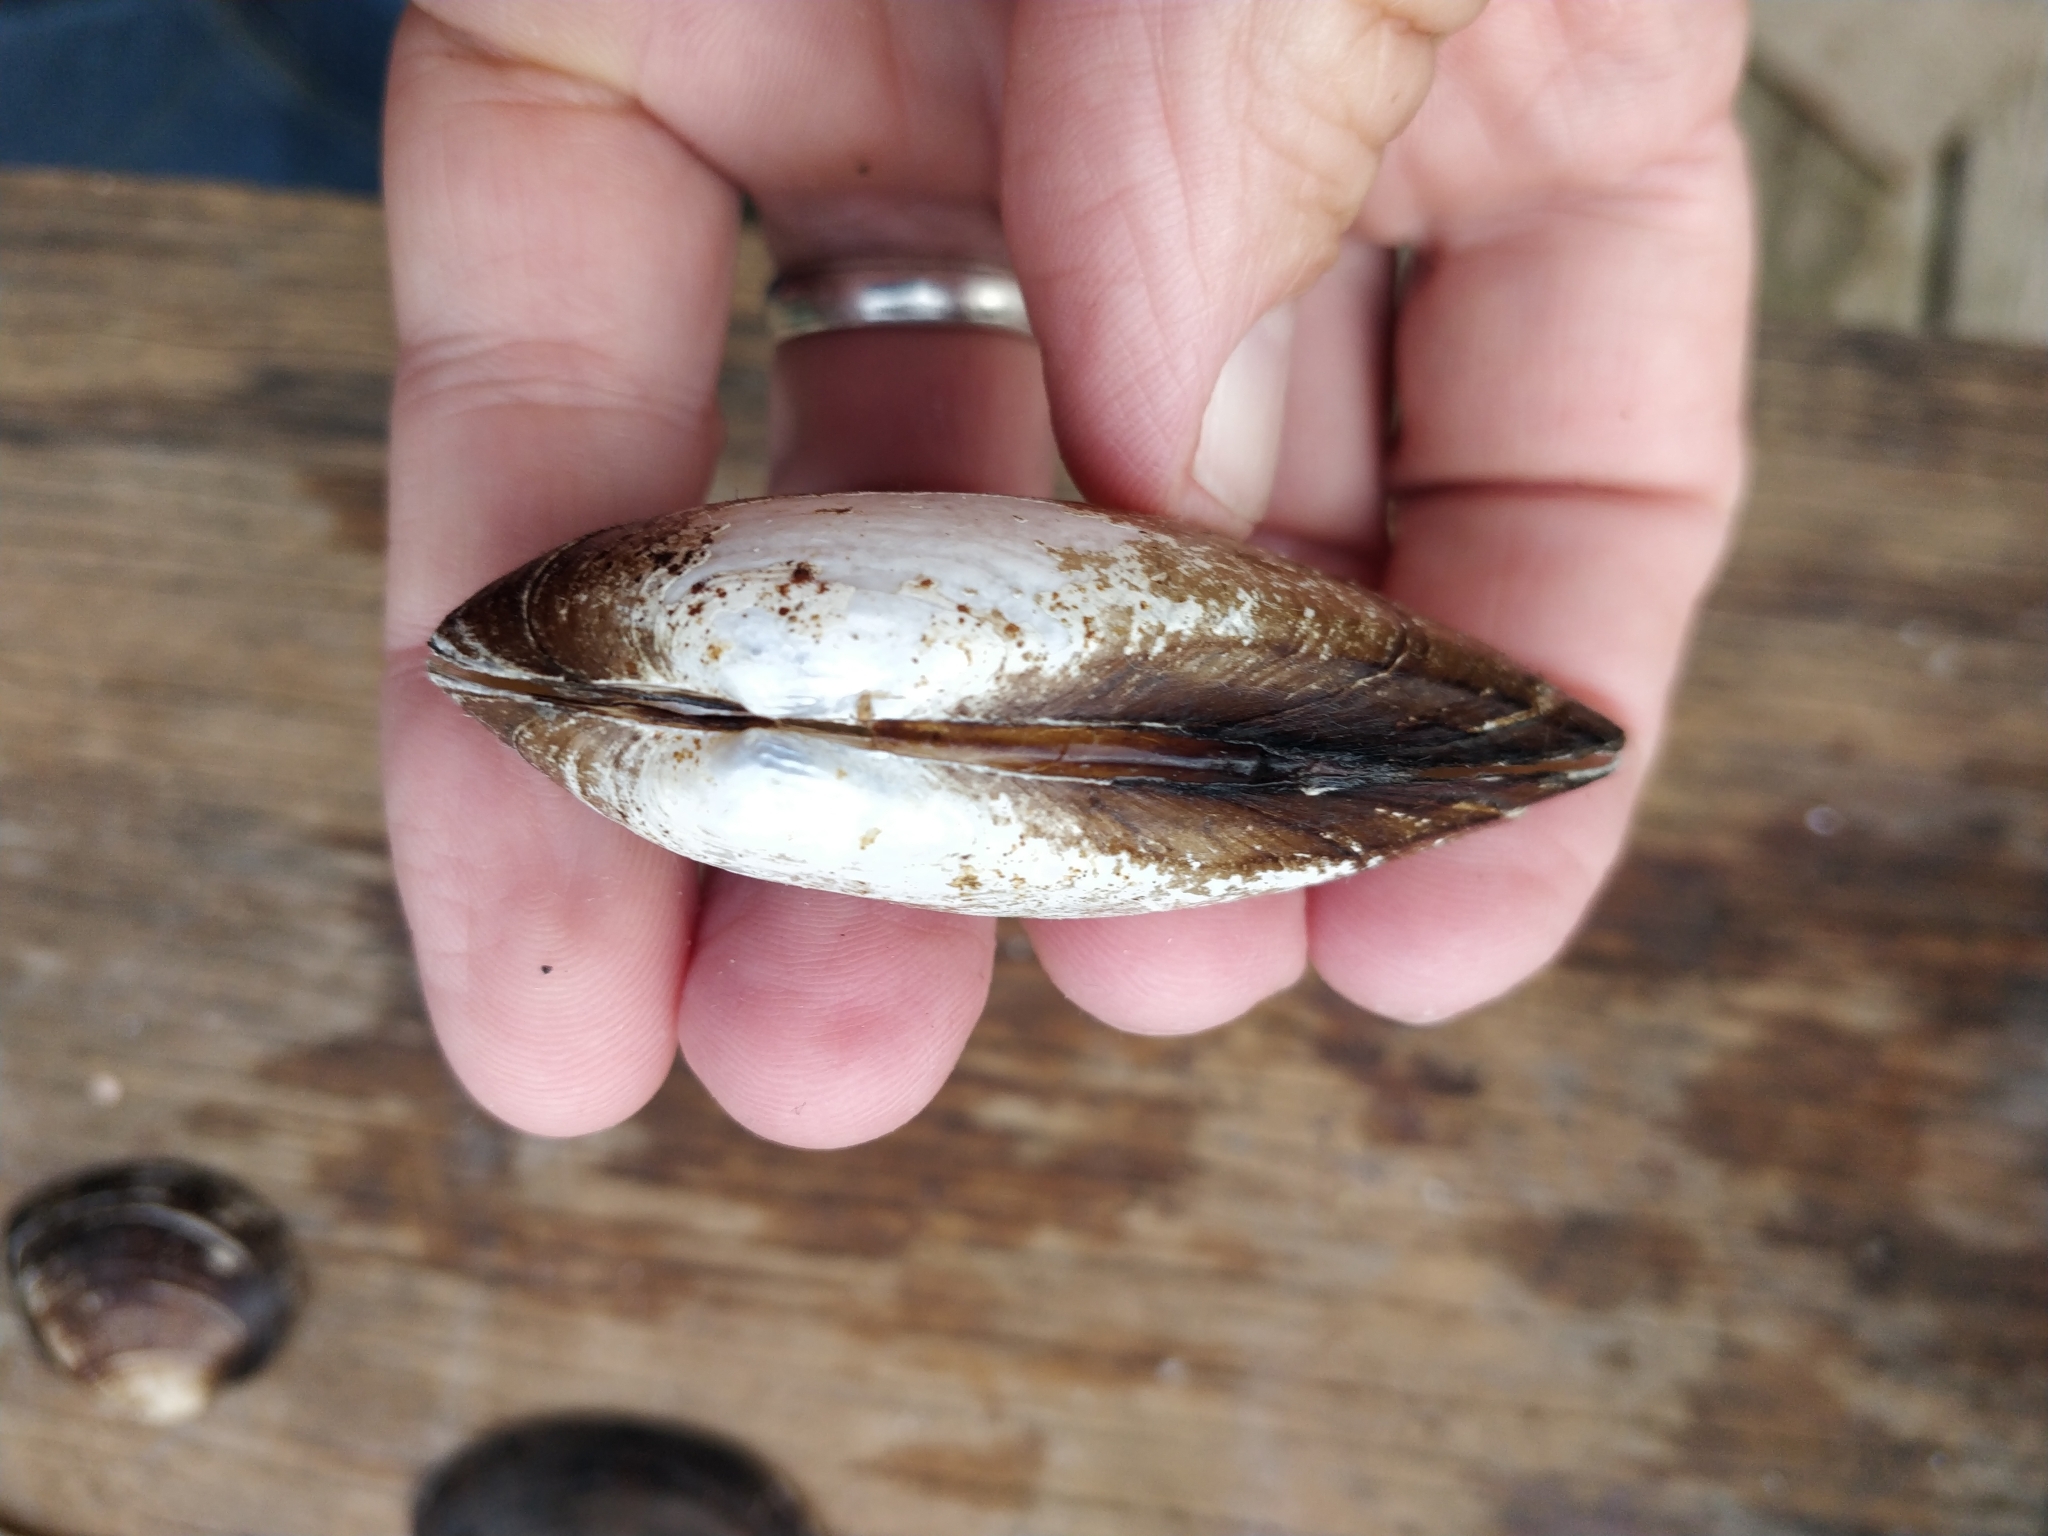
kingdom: Animalia
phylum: Mollusca
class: Bivalvia
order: Unionida
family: Unionidae
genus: Lampsilis
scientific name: Lampsilis teres
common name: Yellow sandshell
